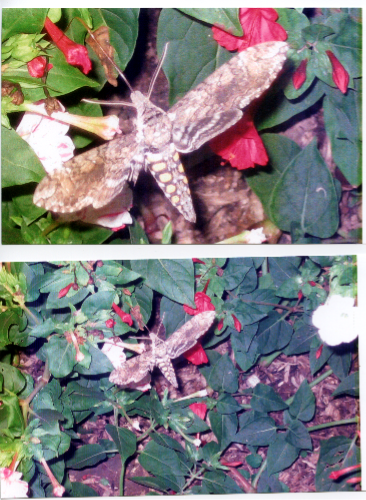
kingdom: Animalia
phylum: Arthropoda
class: Insecta
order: Lepidoptera
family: Sphingidae
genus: Manduca
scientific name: Manduca sexta
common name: Carolina sphinx
